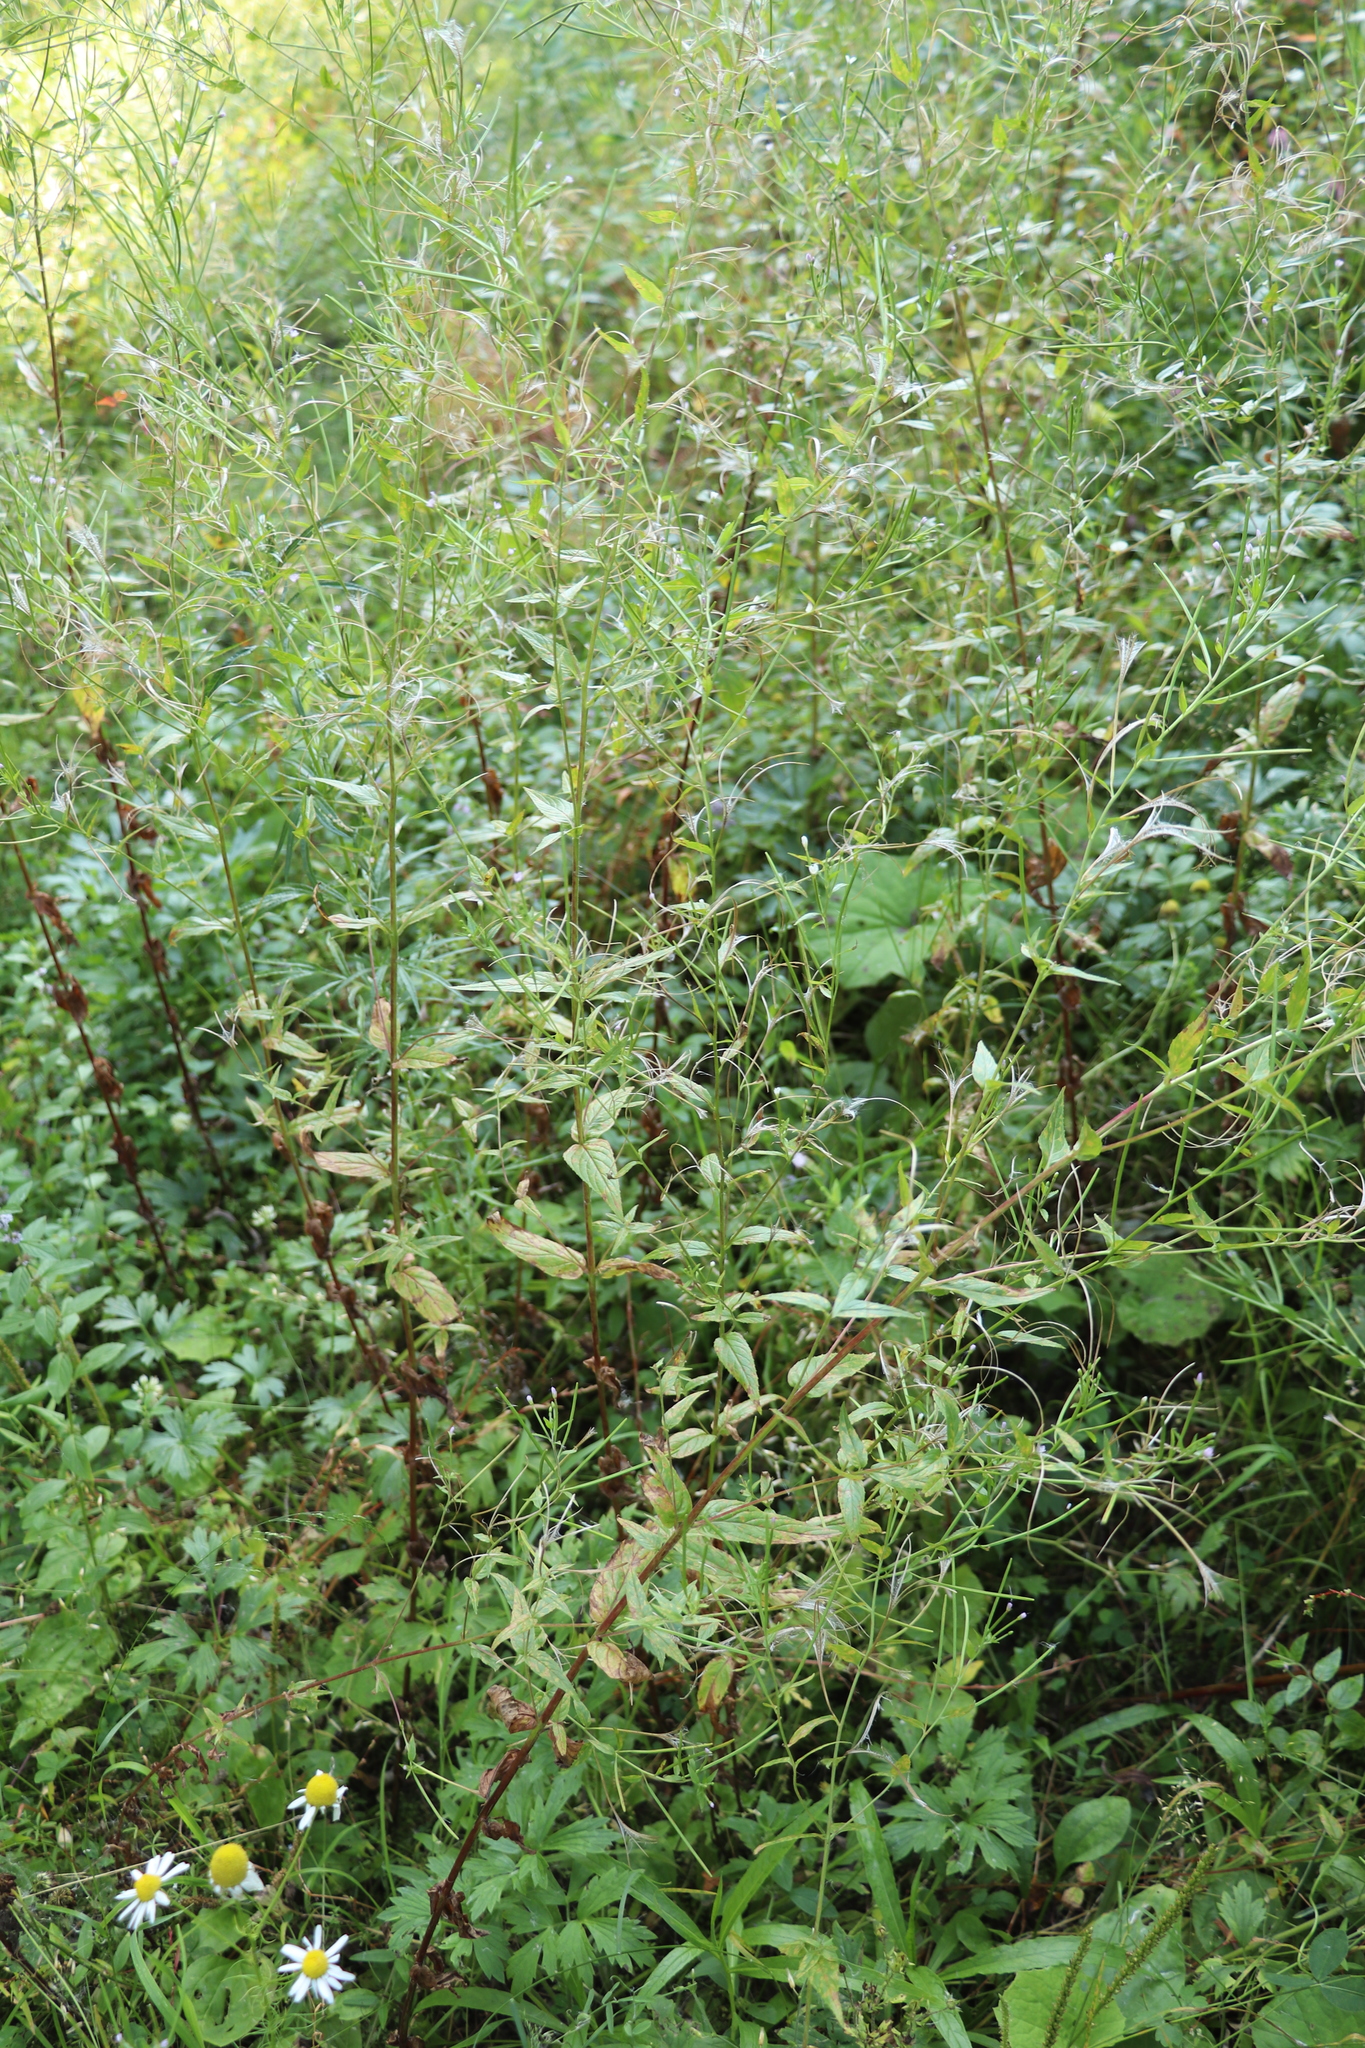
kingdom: Plantae
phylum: Tracheophyta
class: Magnoliopsida
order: Myrtales
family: Onagraceae
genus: Epilobium
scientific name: Epilobium pseudorubescens
